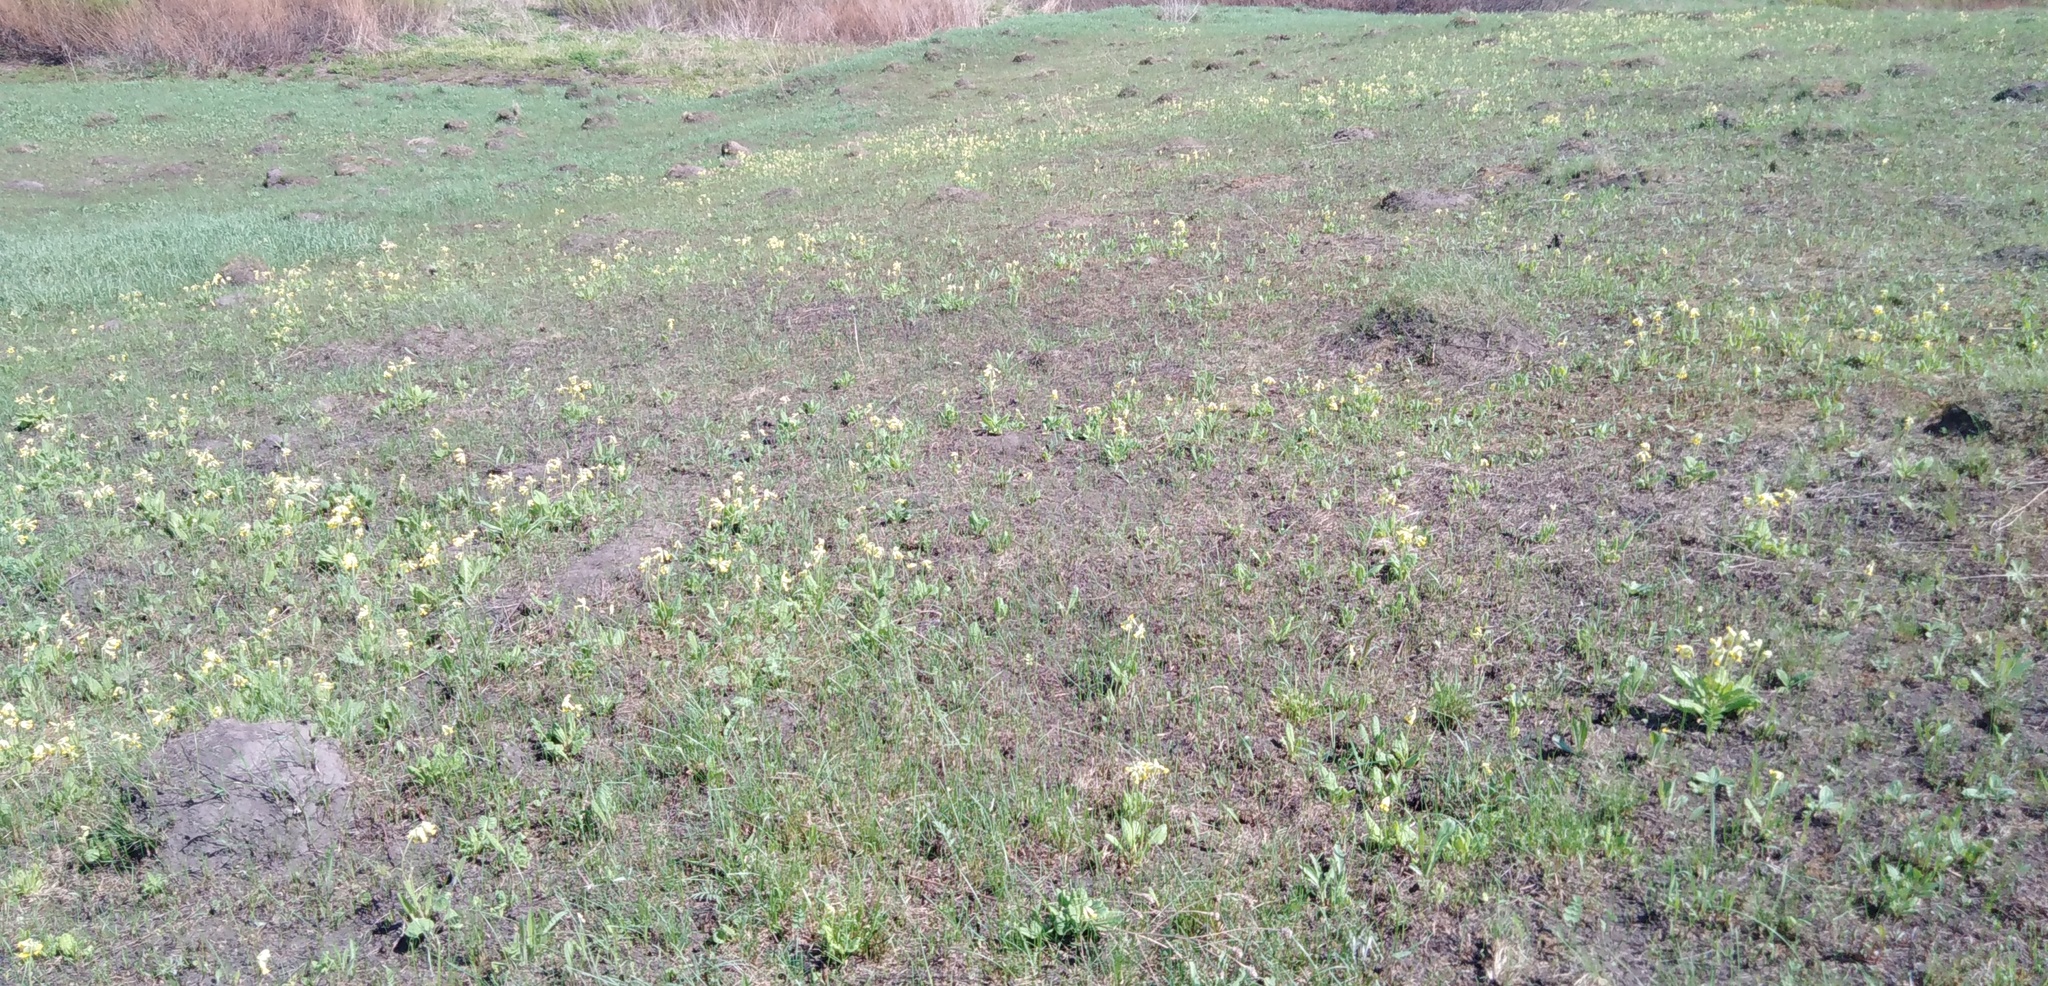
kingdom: Plantae
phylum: Tracheophyta
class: Magnoliopsida
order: Ericales
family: Primulaceae
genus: Primula
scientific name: Primula veris
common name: Cowslip
